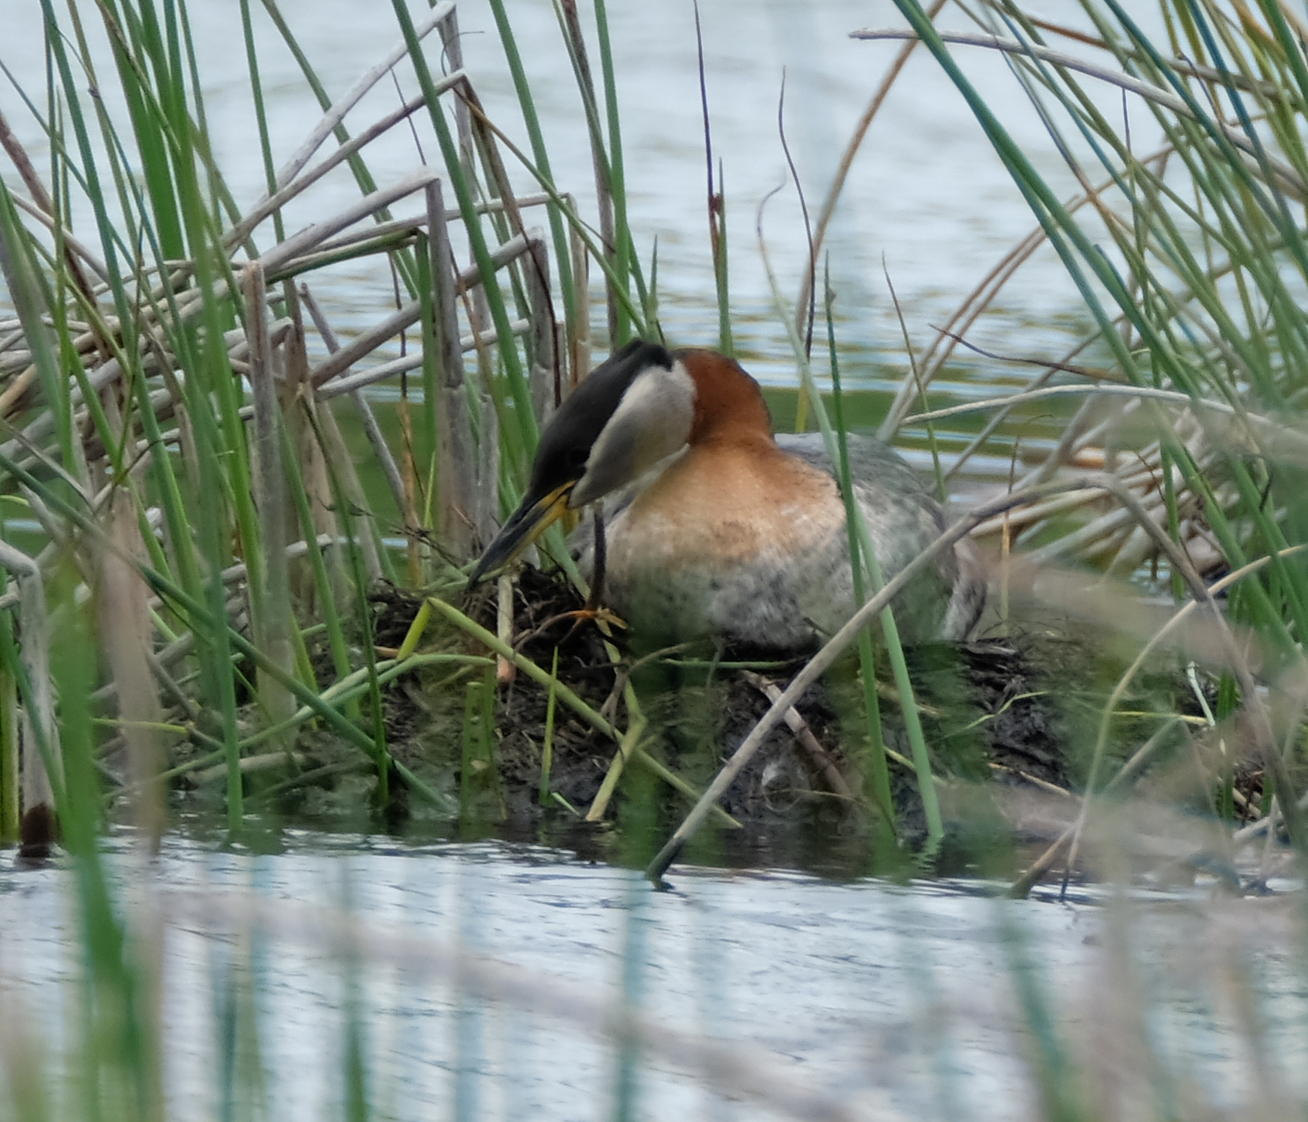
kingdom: Animalia
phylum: Chordata
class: Aves
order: Podicipediformes
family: Podicipedidae
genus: Podiceps
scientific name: Podiceps grisegena
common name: Red-necked grebe
